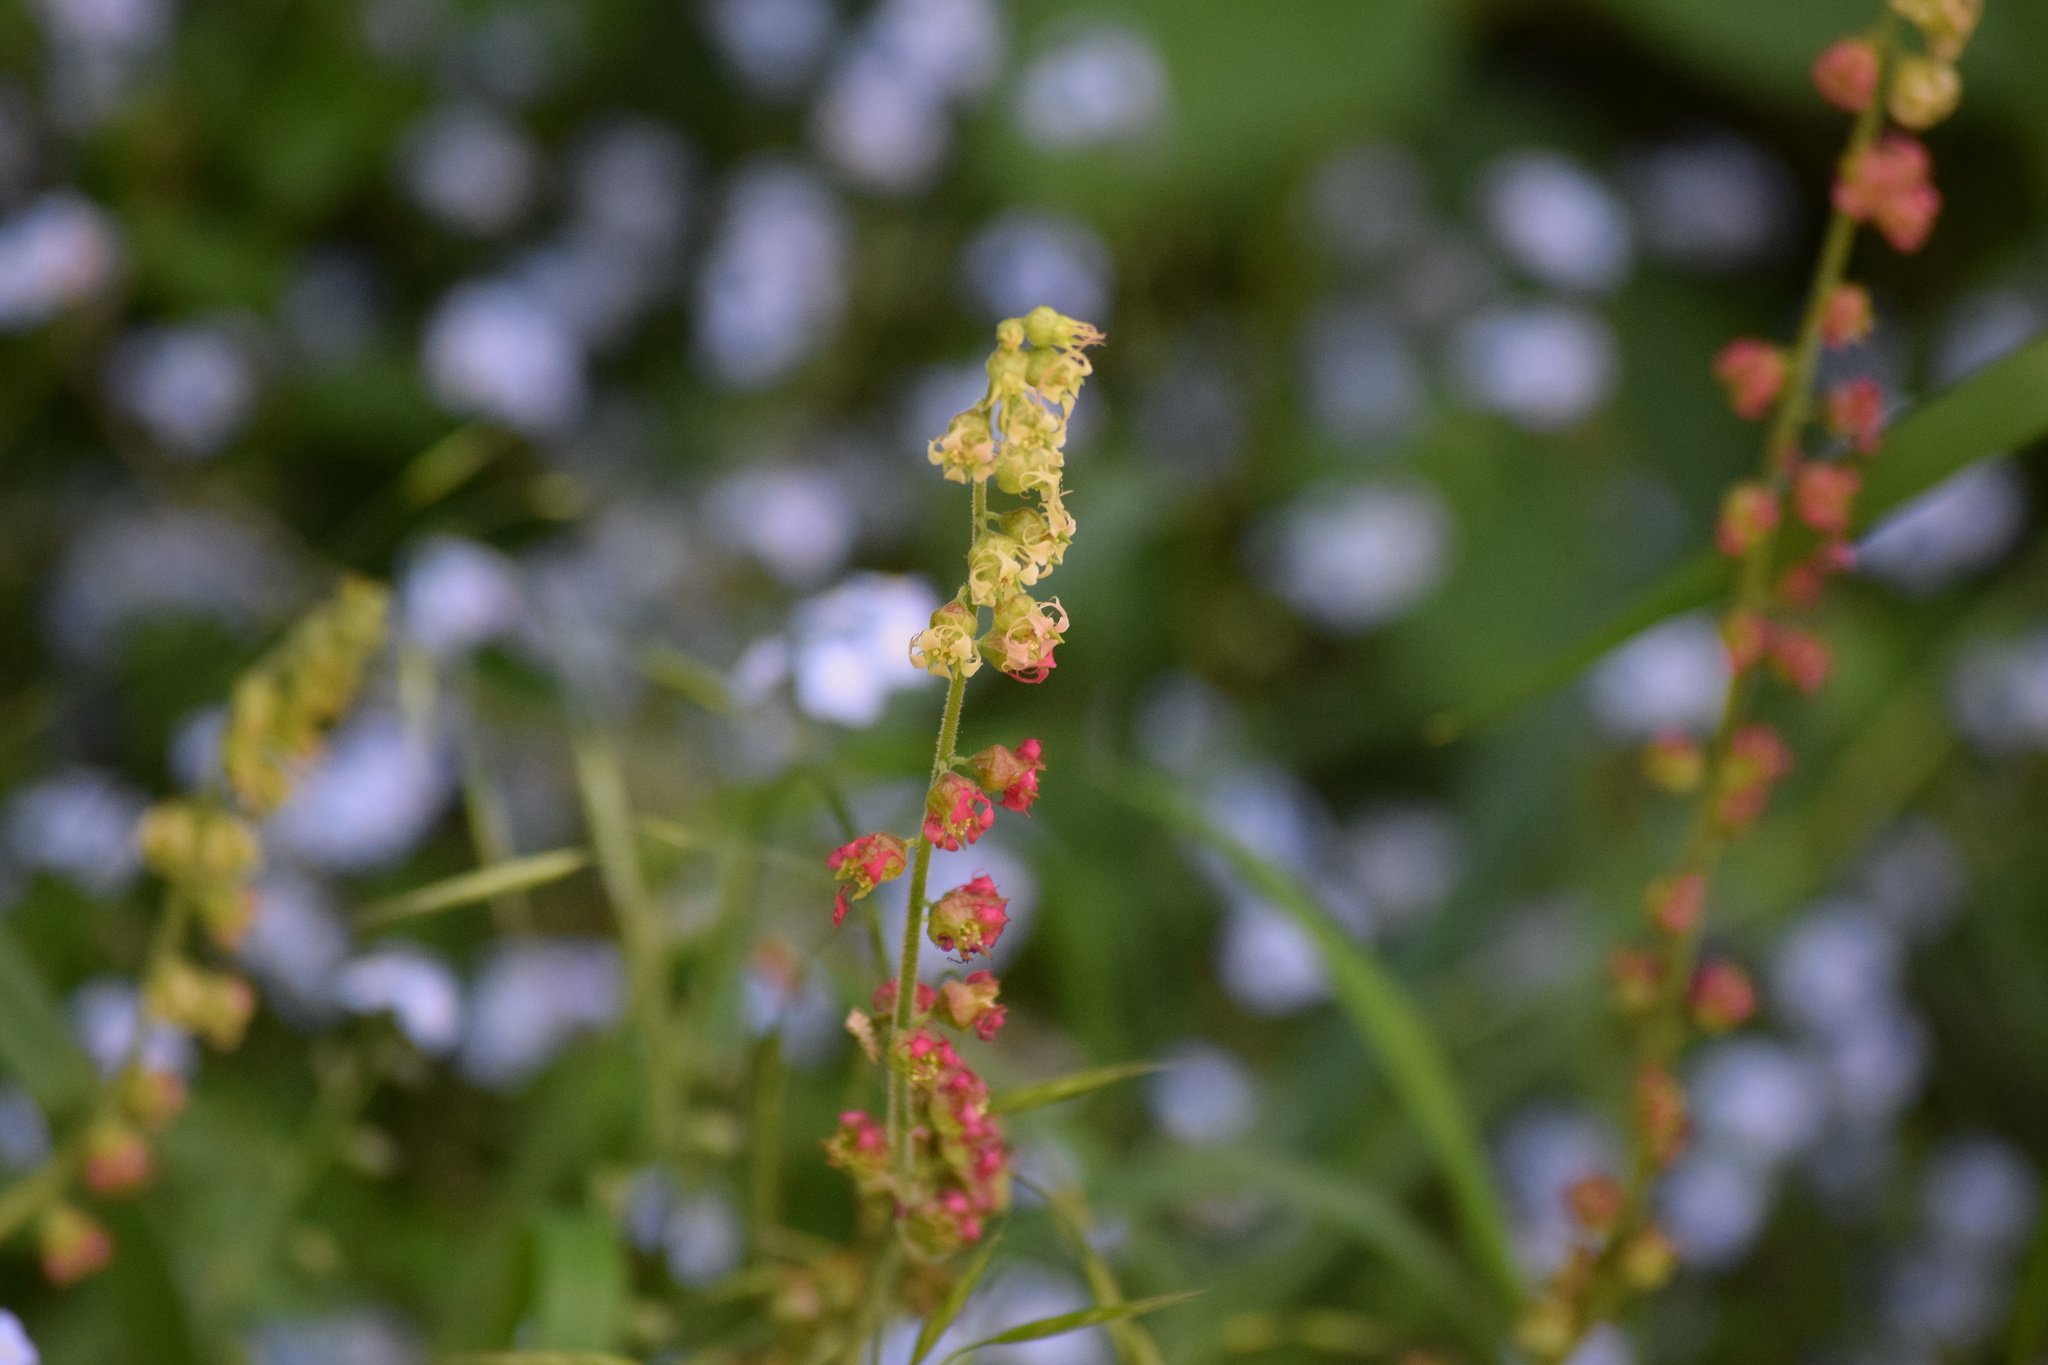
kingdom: Plantae
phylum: Tracheophyta
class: Magnoliopsida
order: Saxifragales
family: Saxifragaceae
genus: Tellima
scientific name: Tellima grandiflora
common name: Fringecups
